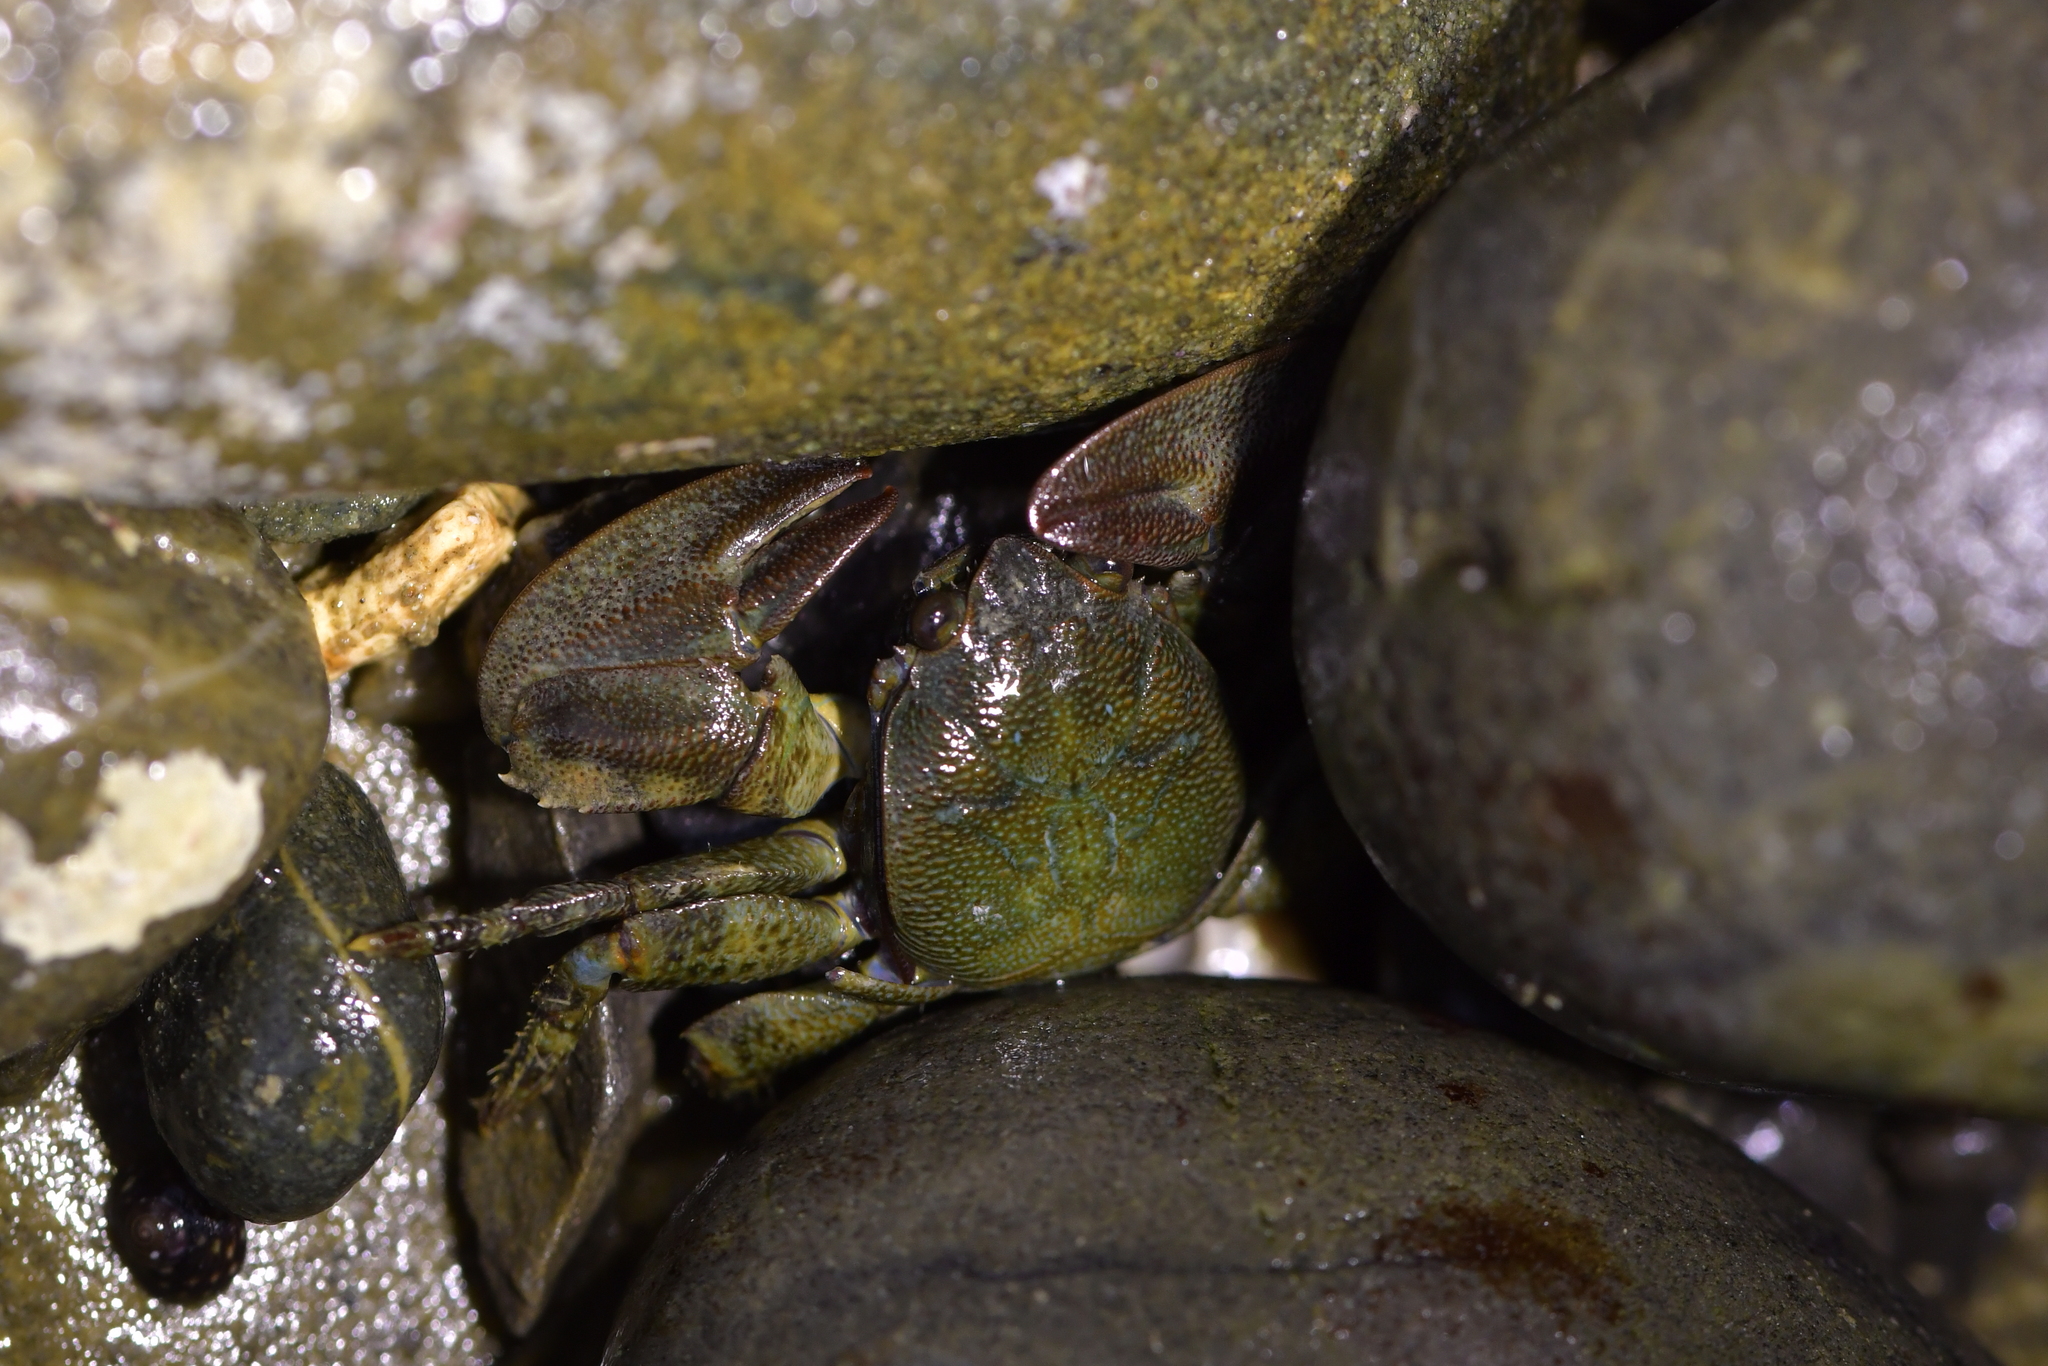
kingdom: Animalia
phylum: Arthropoda
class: Malacostraca
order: Decapoda
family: Porcellanidae
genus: Petrolisthes
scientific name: Petrolisthes elongatus
